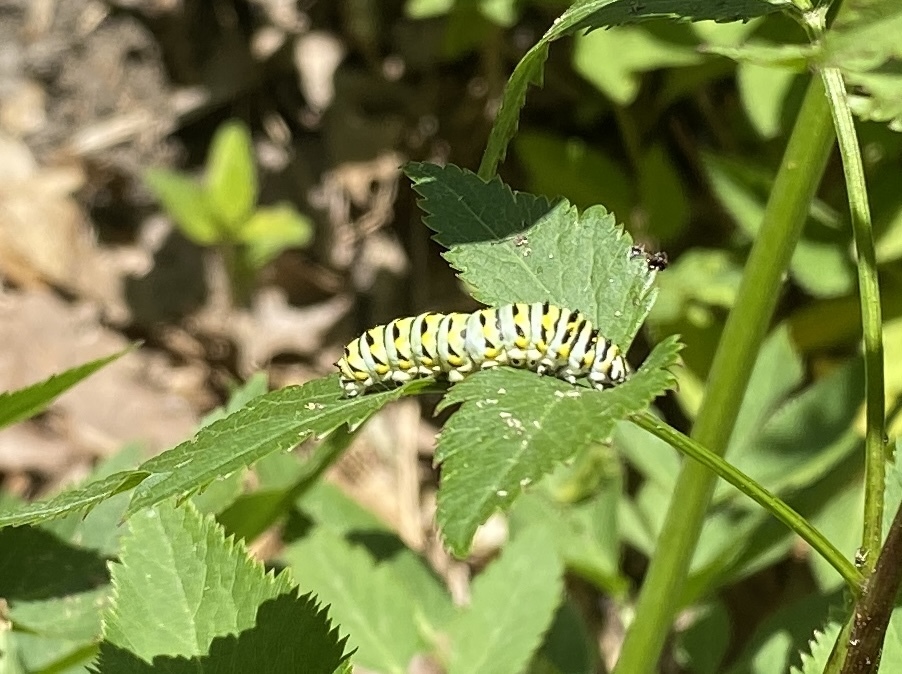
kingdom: Animalia
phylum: Arthropoda
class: Insecta
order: Lepidoptera
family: Papilionidae
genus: Papilio
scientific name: Papilio polyxenes
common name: Black swallowtail
